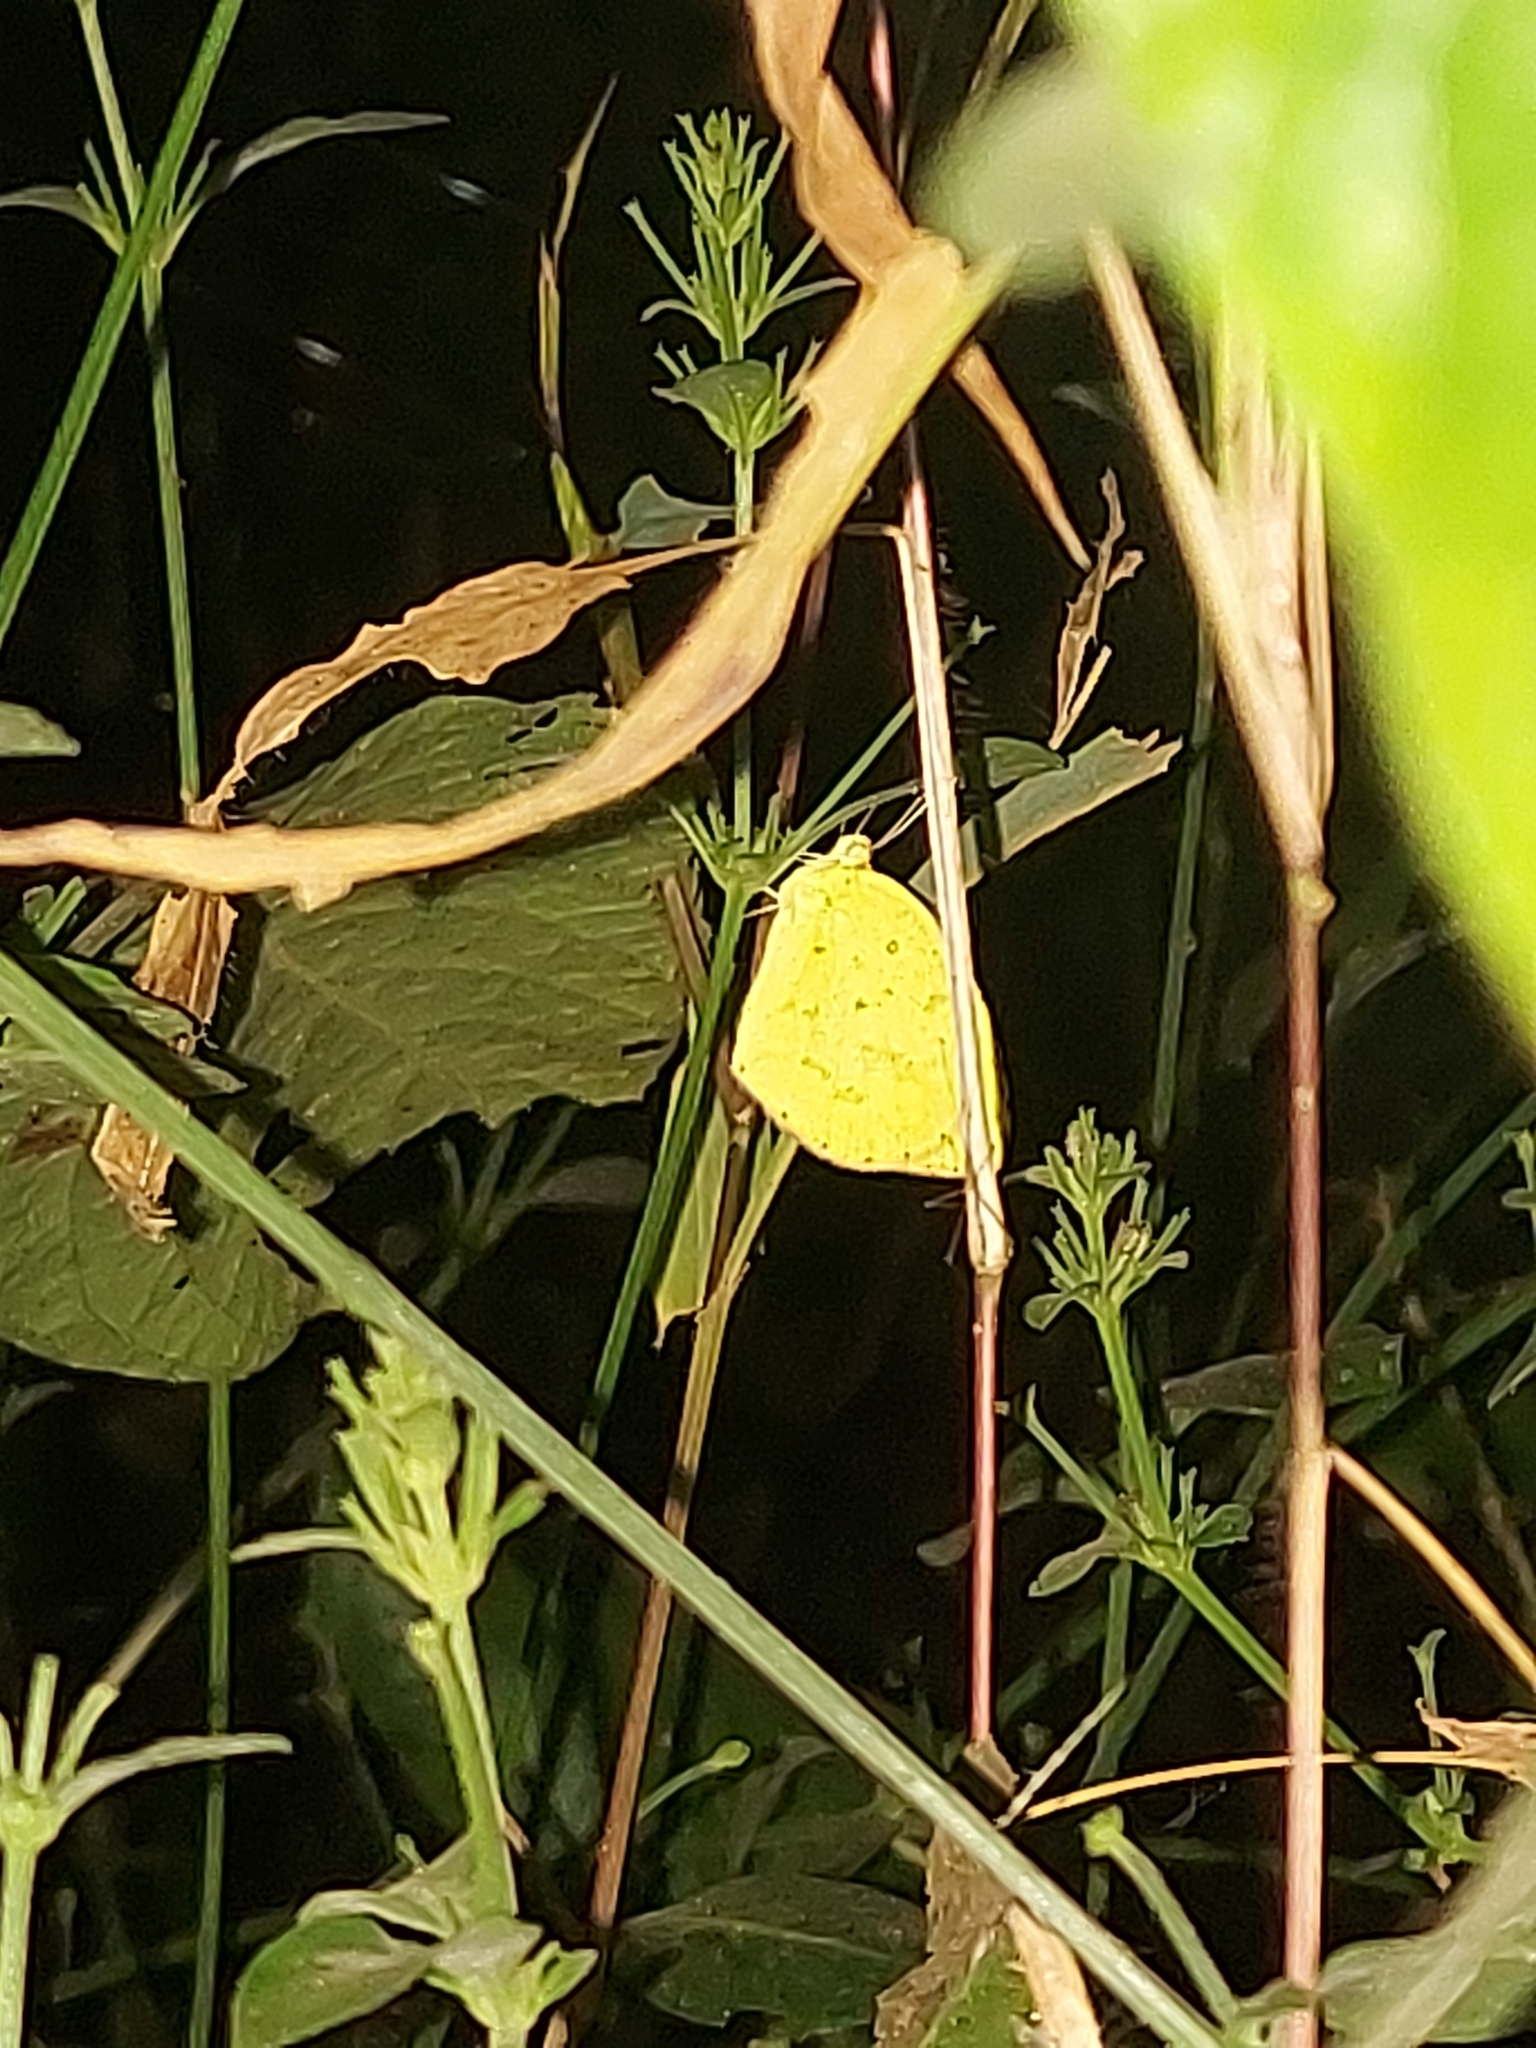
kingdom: Animalia
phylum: Arthropoda
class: Insecta
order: Lepidoptera
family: Pieridae
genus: Eurema
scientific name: Eurema brigitta
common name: Small grass yellow
